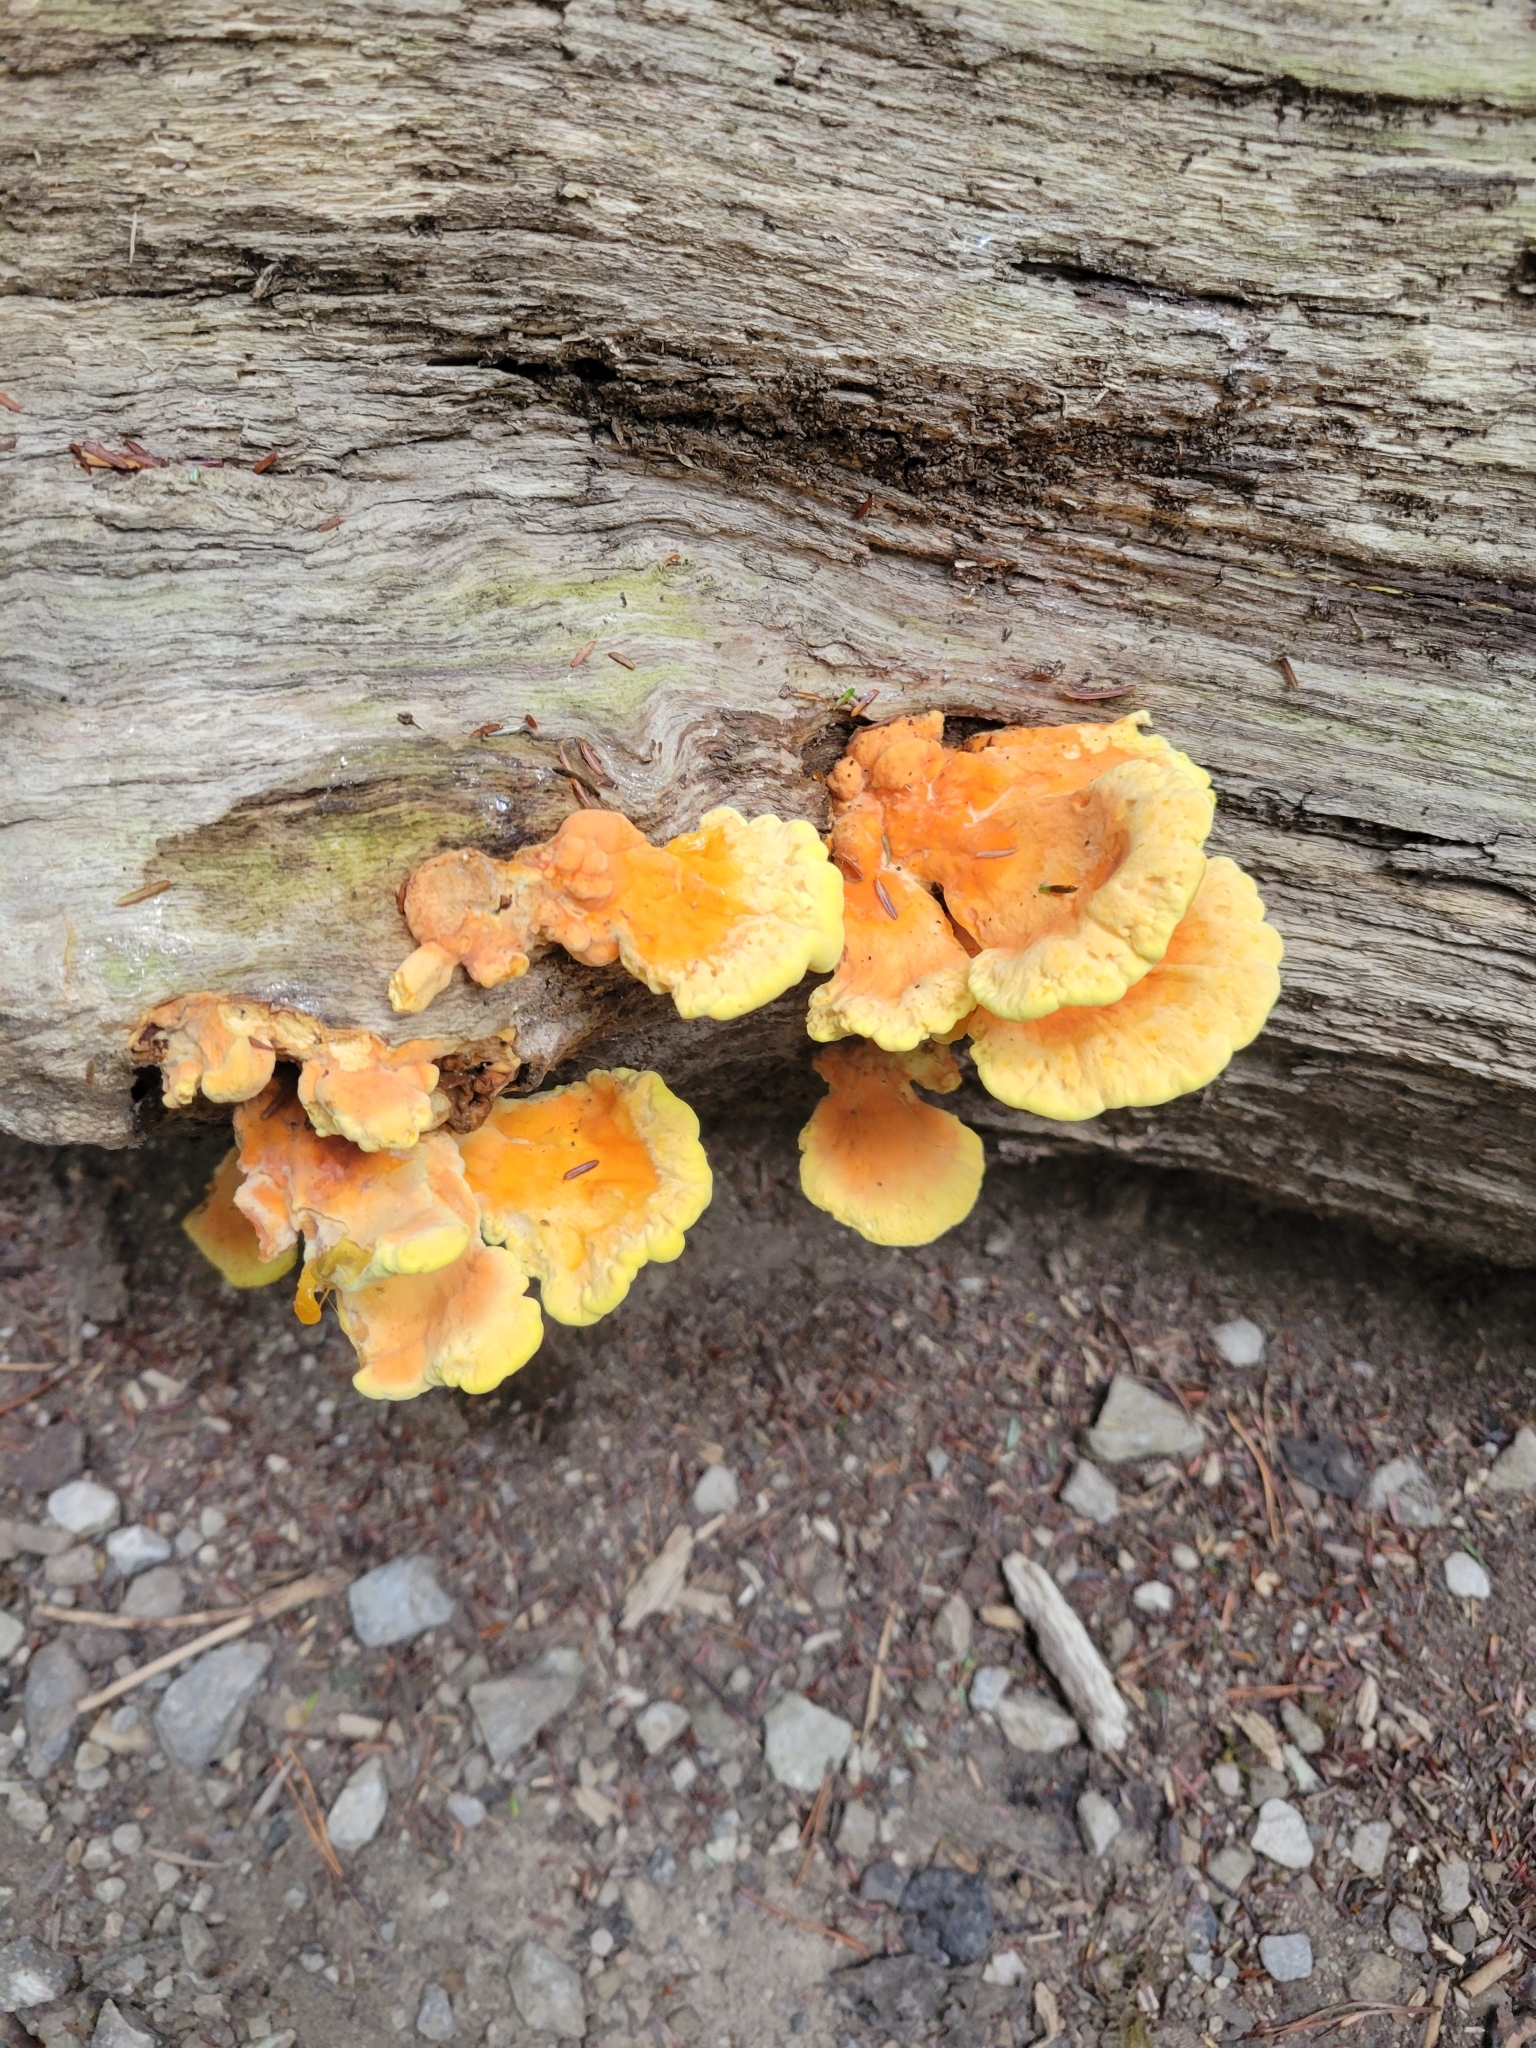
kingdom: Fungi
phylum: Basidiomycota
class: Agaricomycetes
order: Polyporales
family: Laetiporaceae
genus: Laetiporus
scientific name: Laetiporus sulphureus
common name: Chicken of the woods
